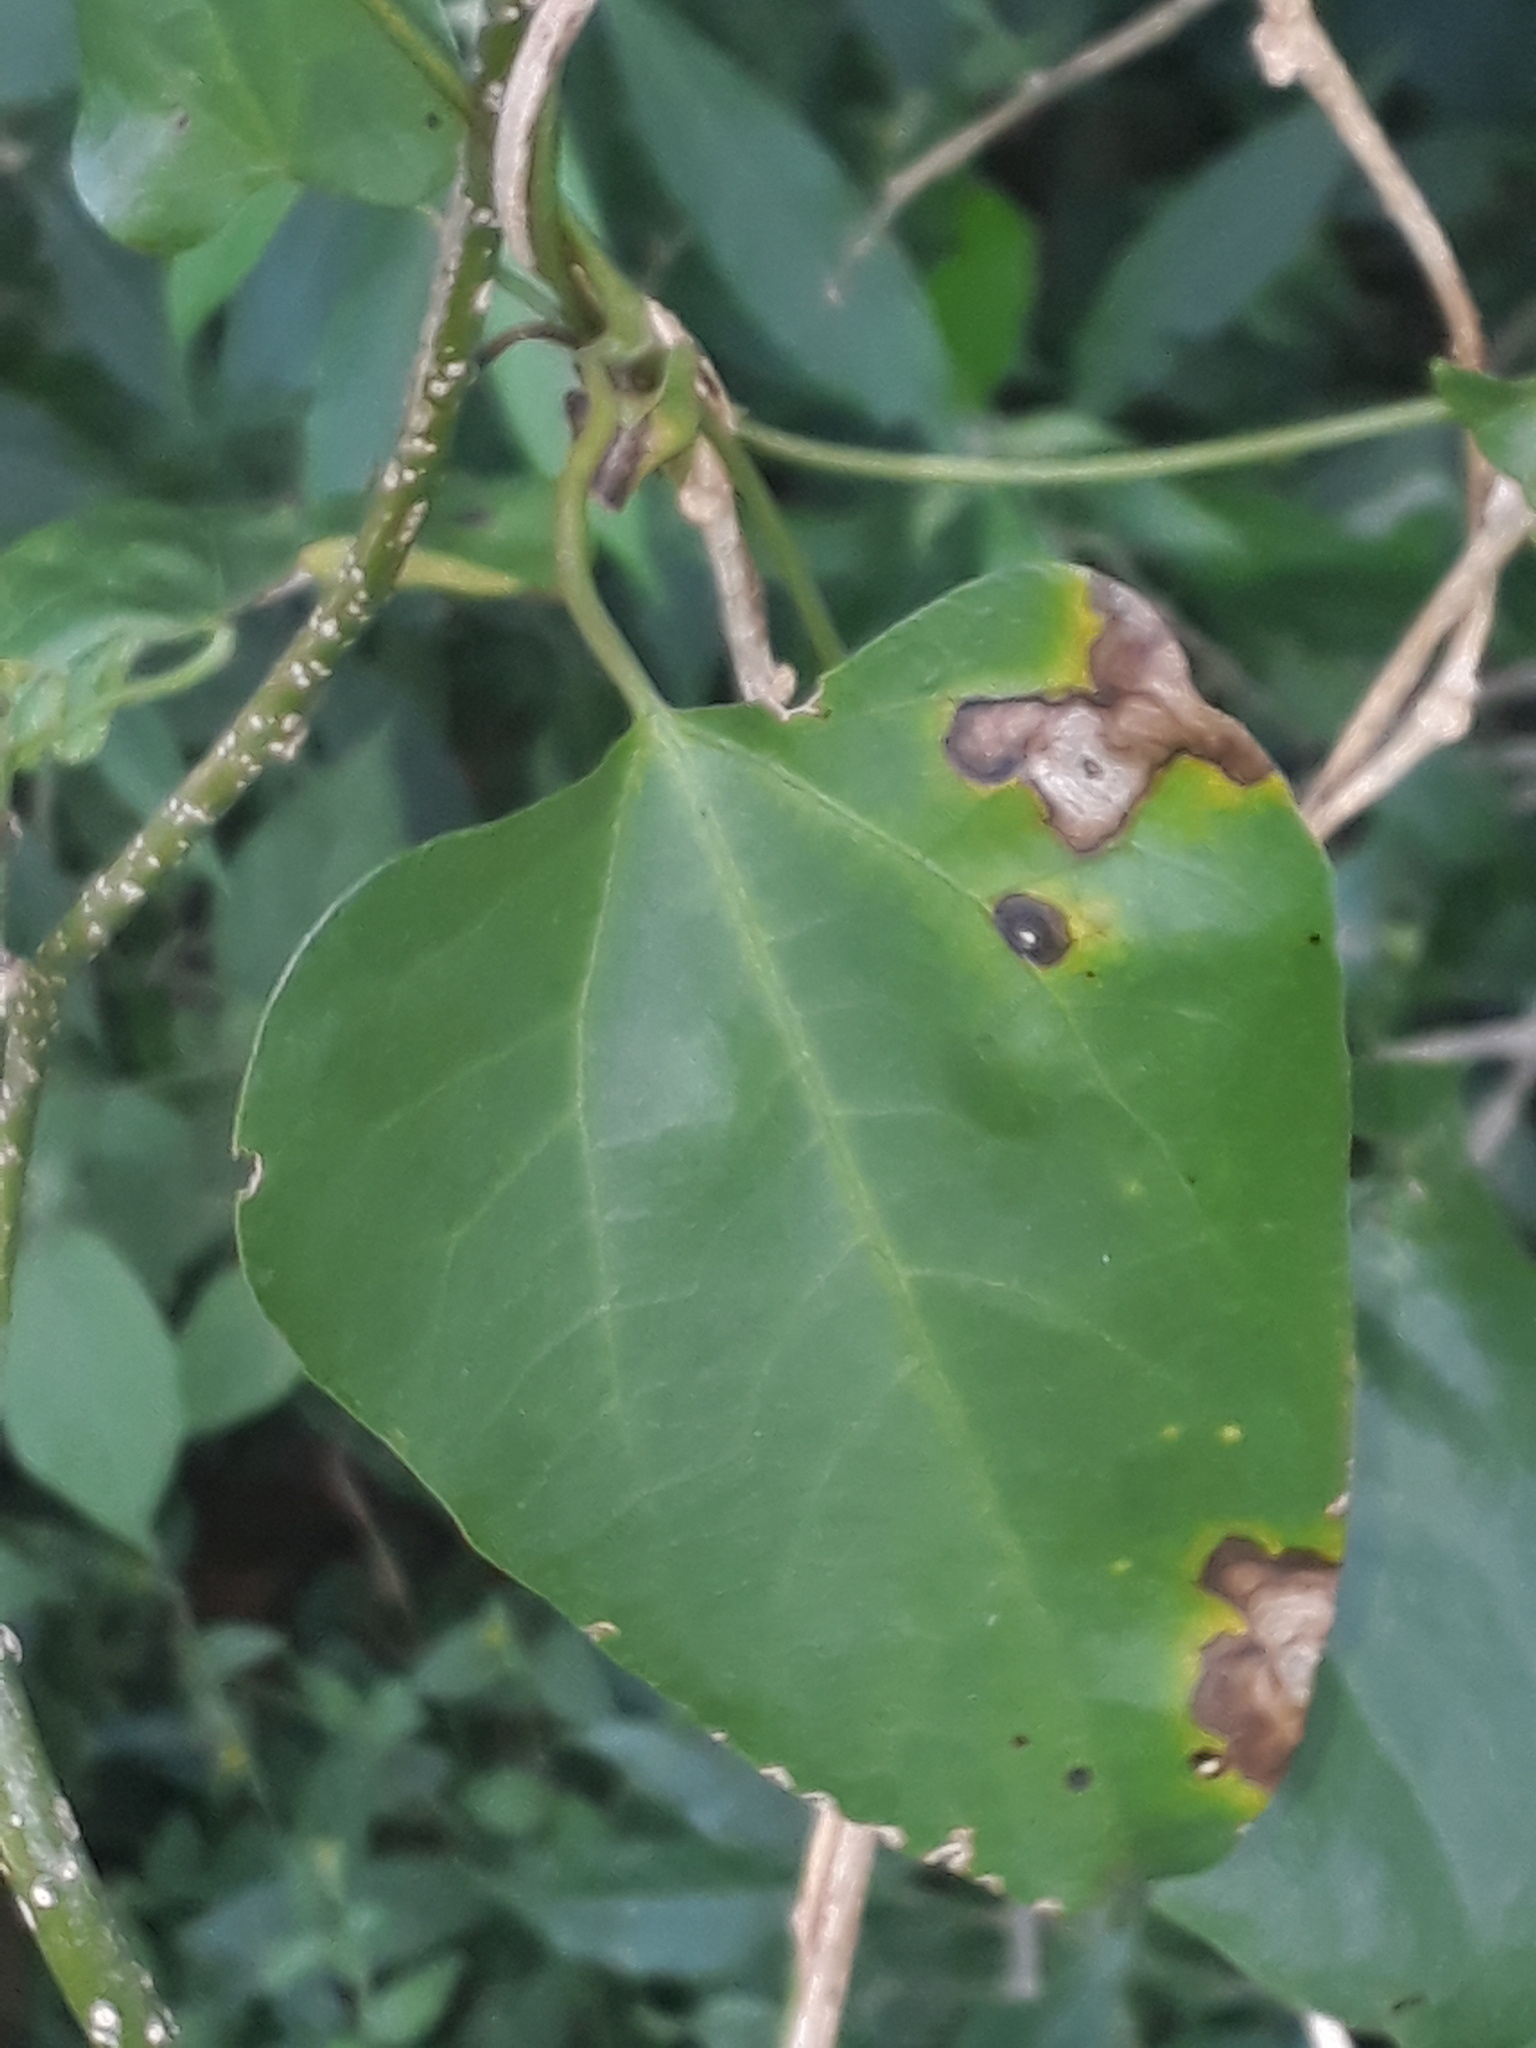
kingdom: Plantae
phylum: Tracheophyta
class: Magnoliopsida
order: Piperales
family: Aristolochiaceae
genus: Aristolochia
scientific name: Aristolochia triangularis
